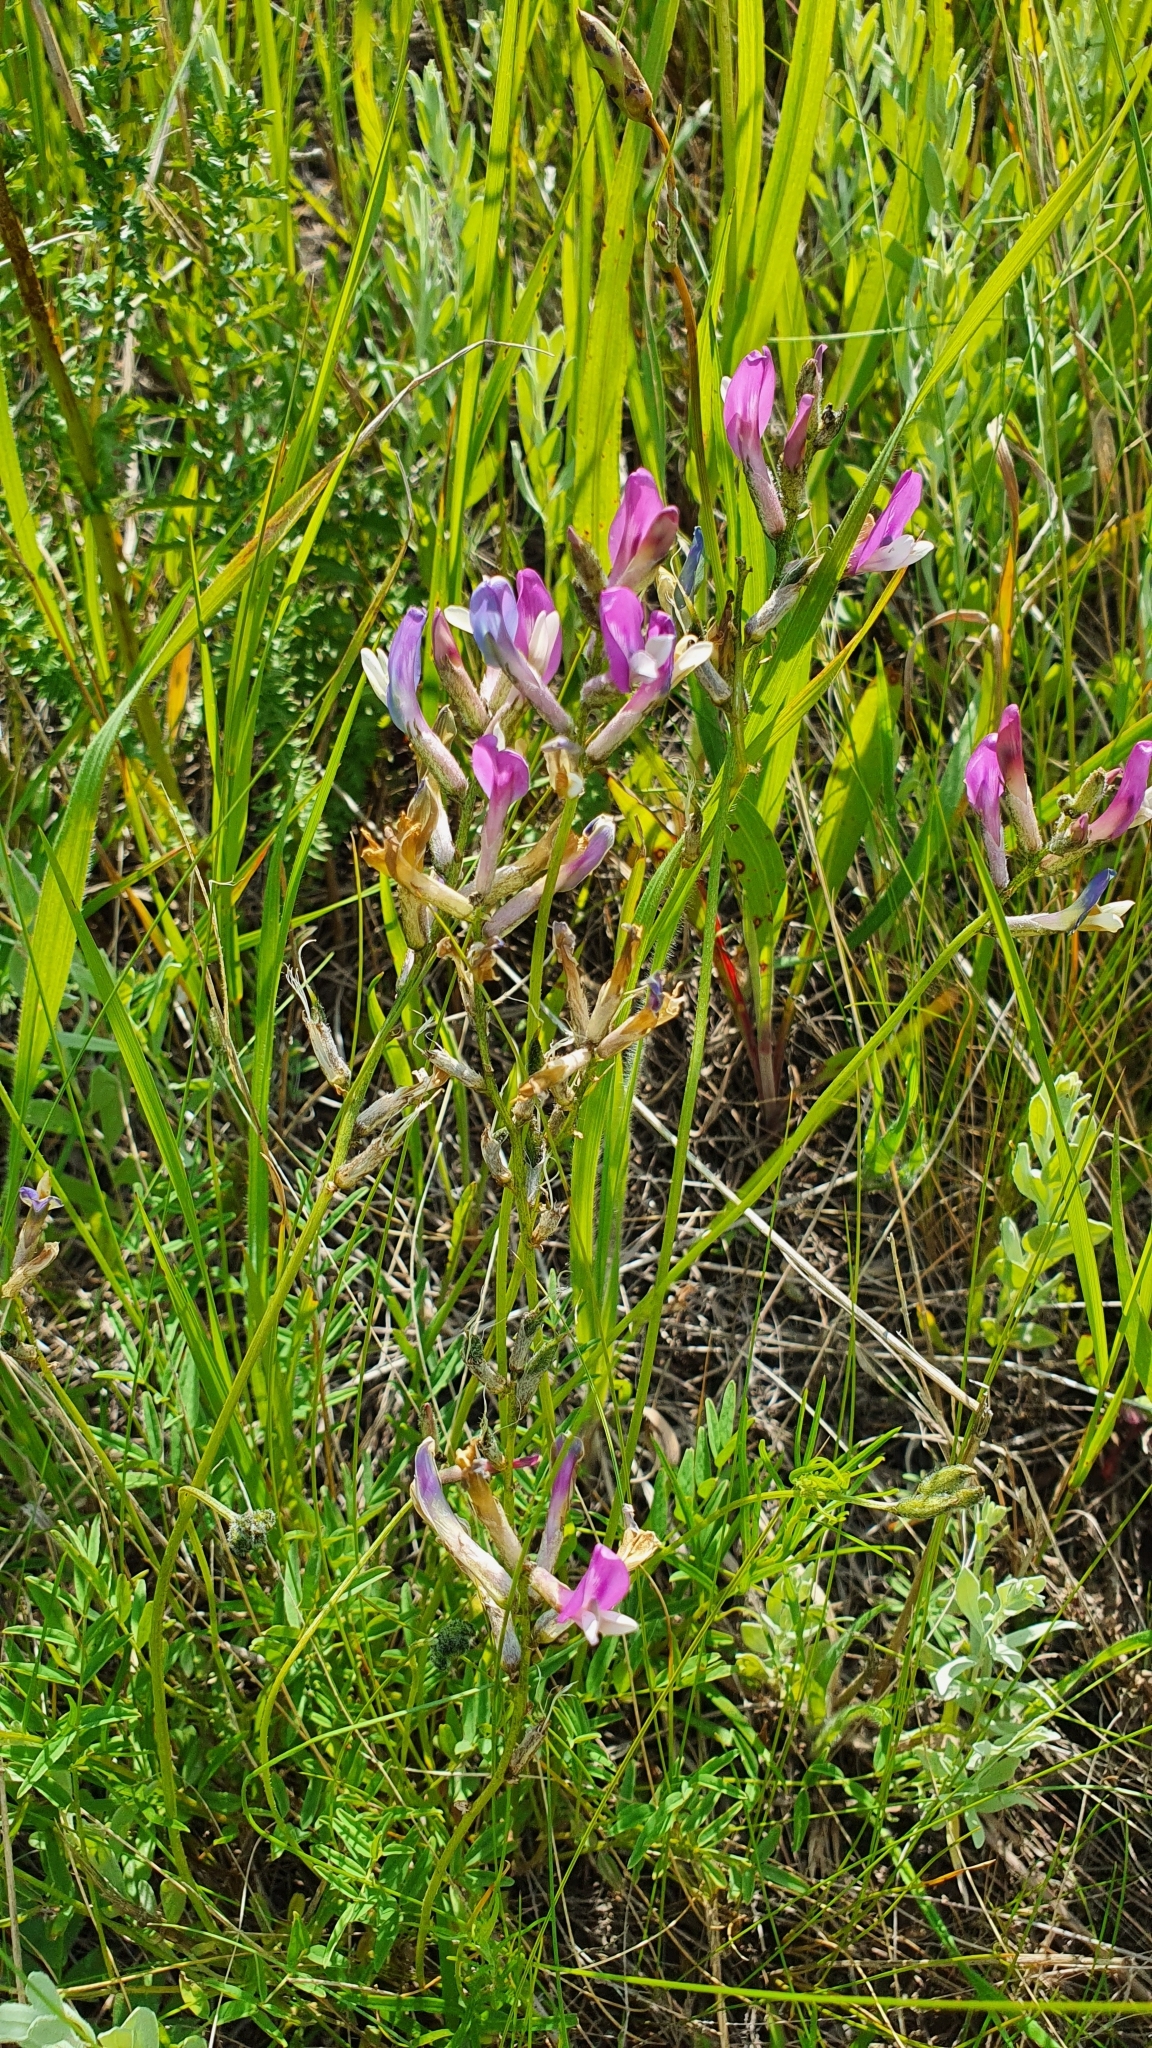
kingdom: Plantae
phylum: Tracheophyta
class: Magnoliopsida
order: Fabales
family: Fabaceae
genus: Astragalus
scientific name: Astragalus macropus
